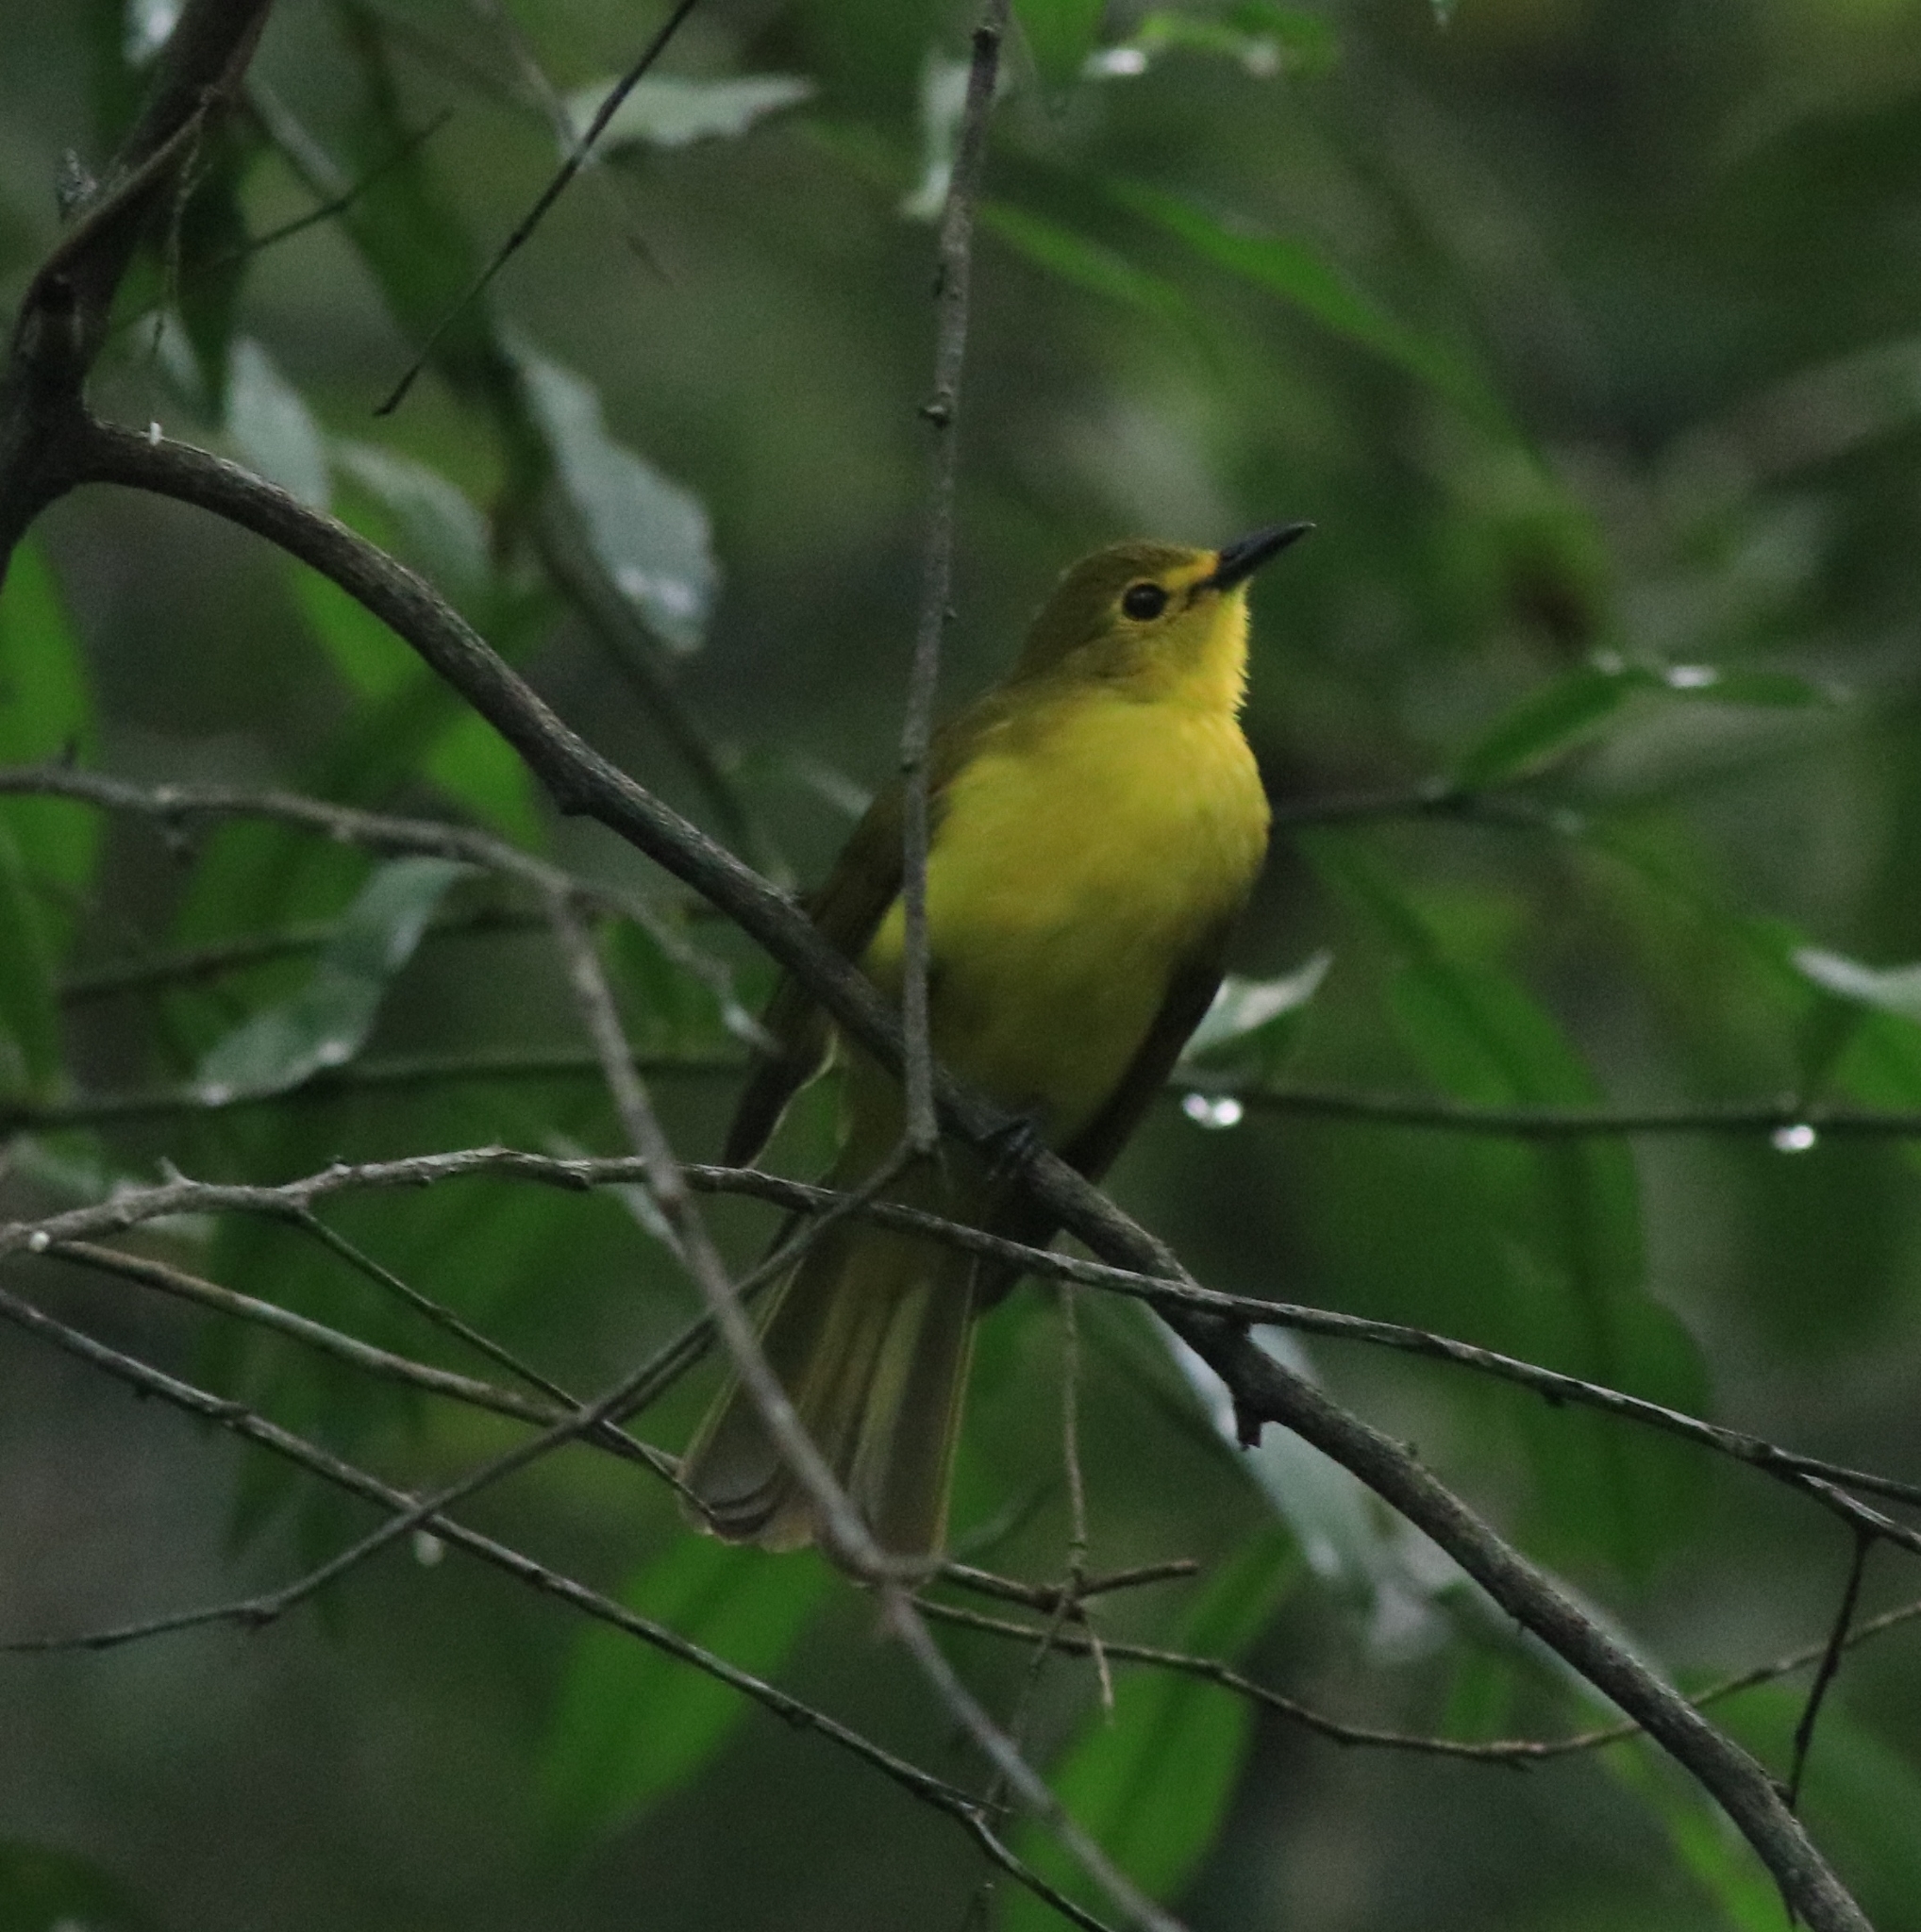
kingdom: Animalia
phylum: Chordata
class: Aves
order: Passeriformes
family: Pycnonotidae
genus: Acritillas
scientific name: Acritillas indica
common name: Yellow-browed bulbul
